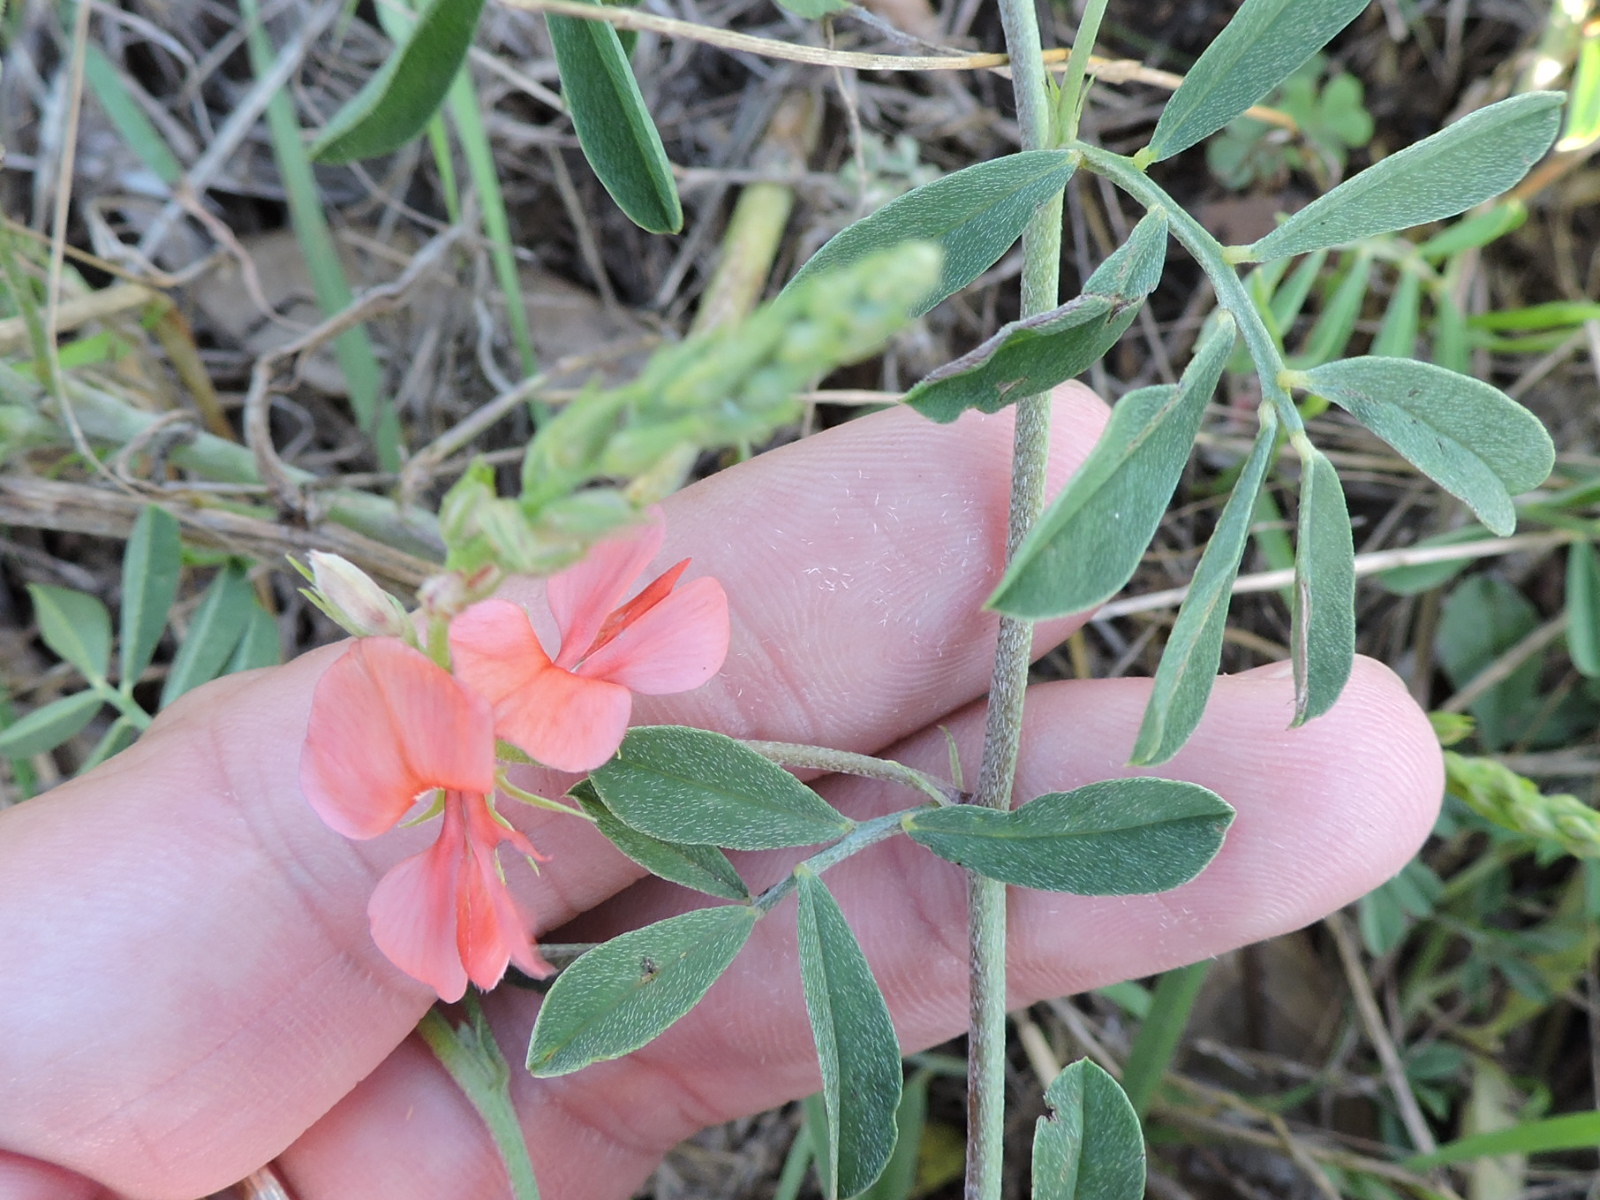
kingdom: Plantae
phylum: Tracheophyta
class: Magnoliopsida
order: Fabales
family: Fabaceae
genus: Indigofera
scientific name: Indigofera miniata
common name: Coast indigo
